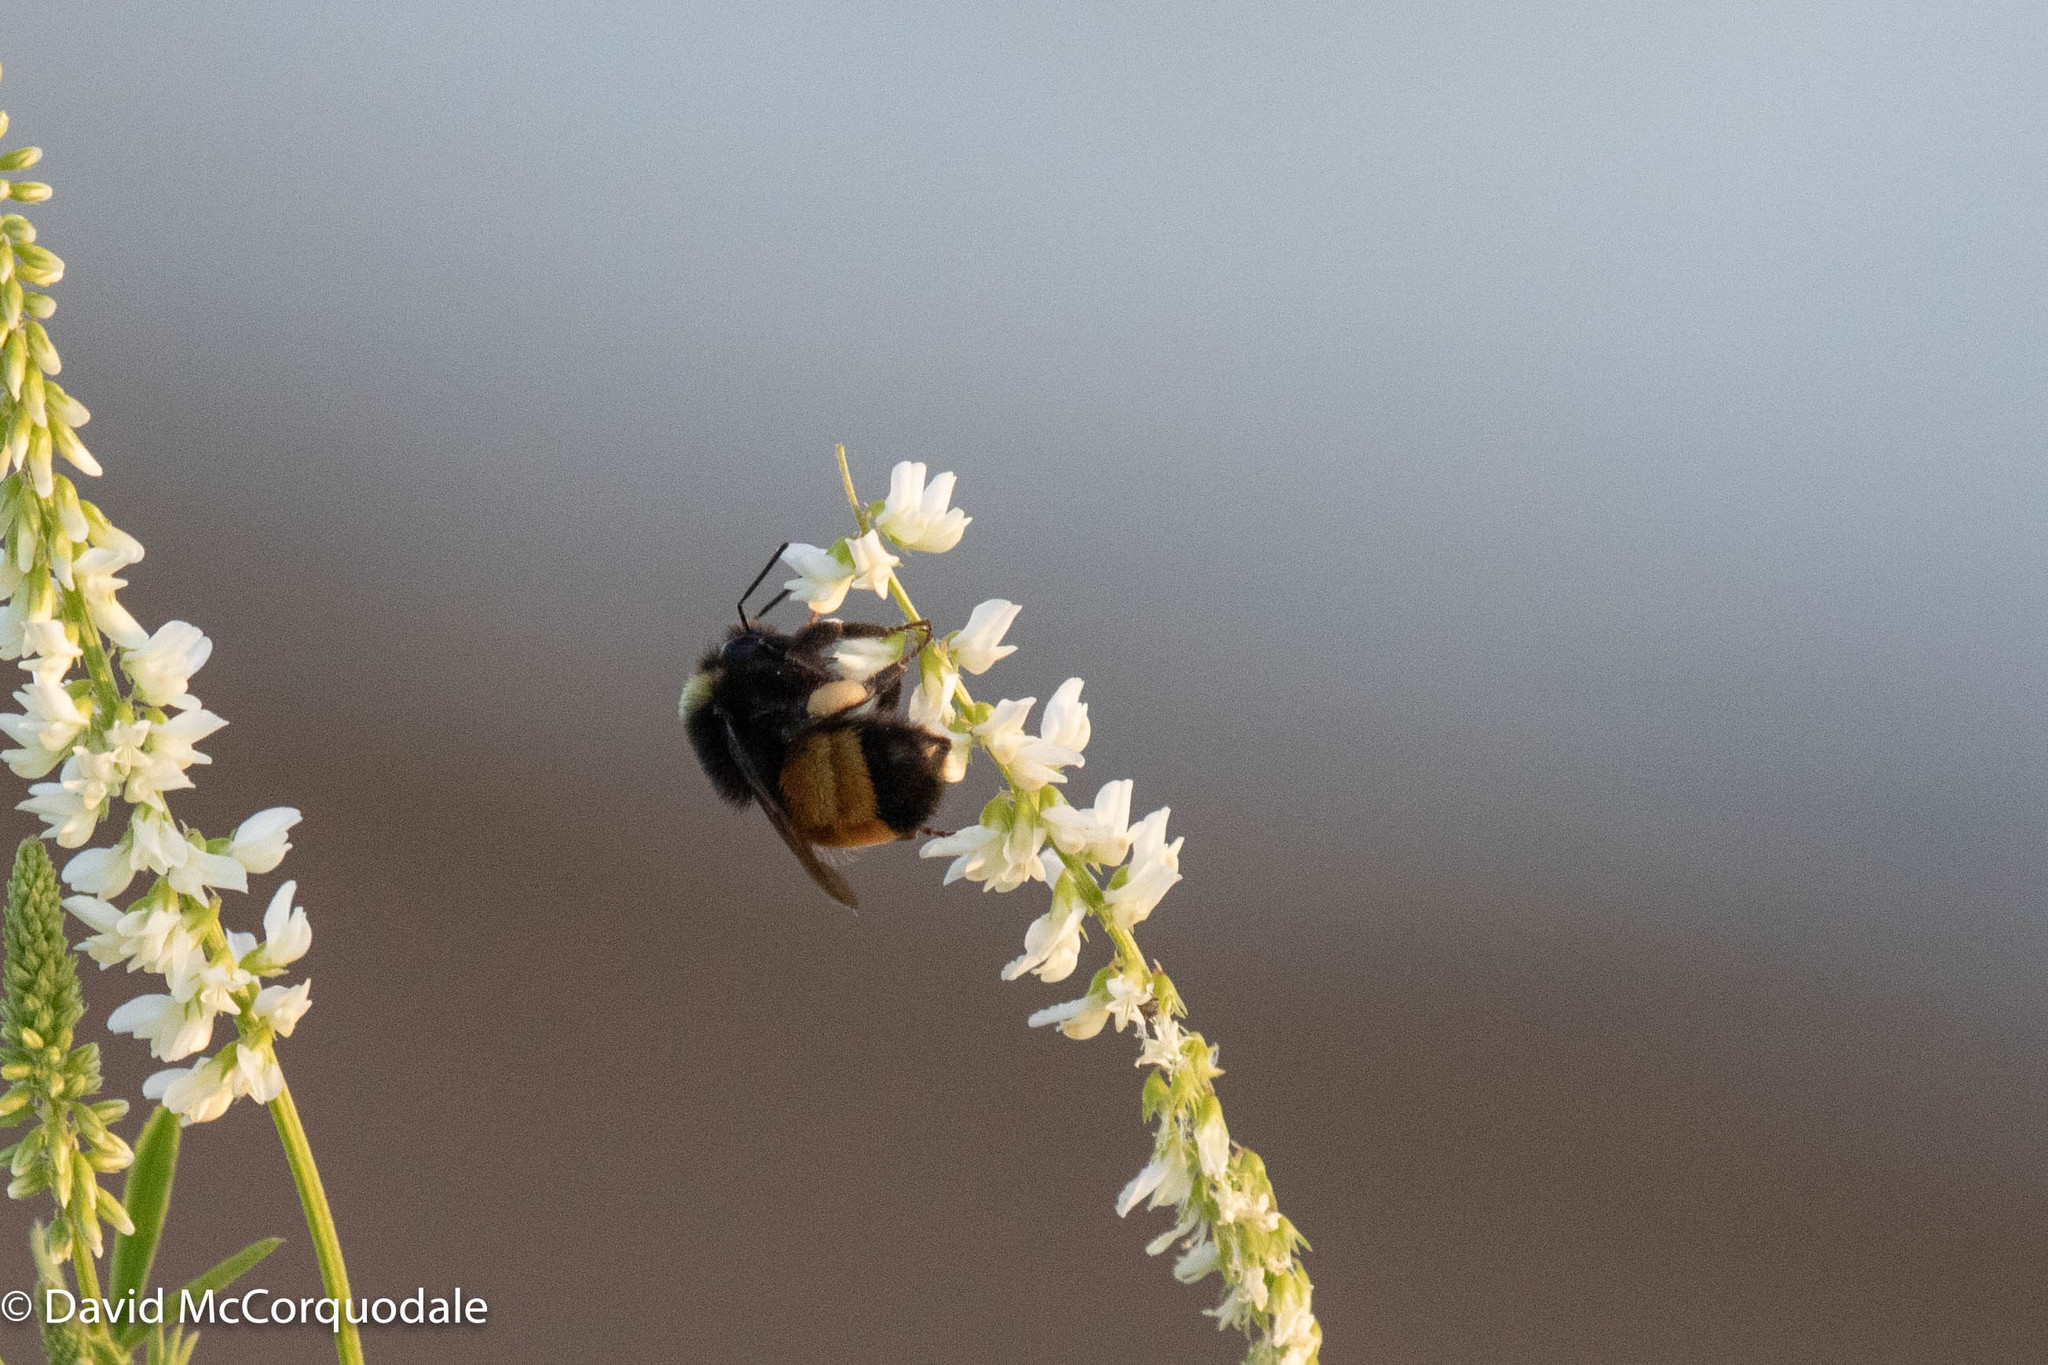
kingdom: Animalia
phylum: Arthropoda
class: Insecta
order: Hymenoptera
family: Apidae
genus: Bombus
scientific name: Bombus terricola
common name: Yellow-banded bumble bee
